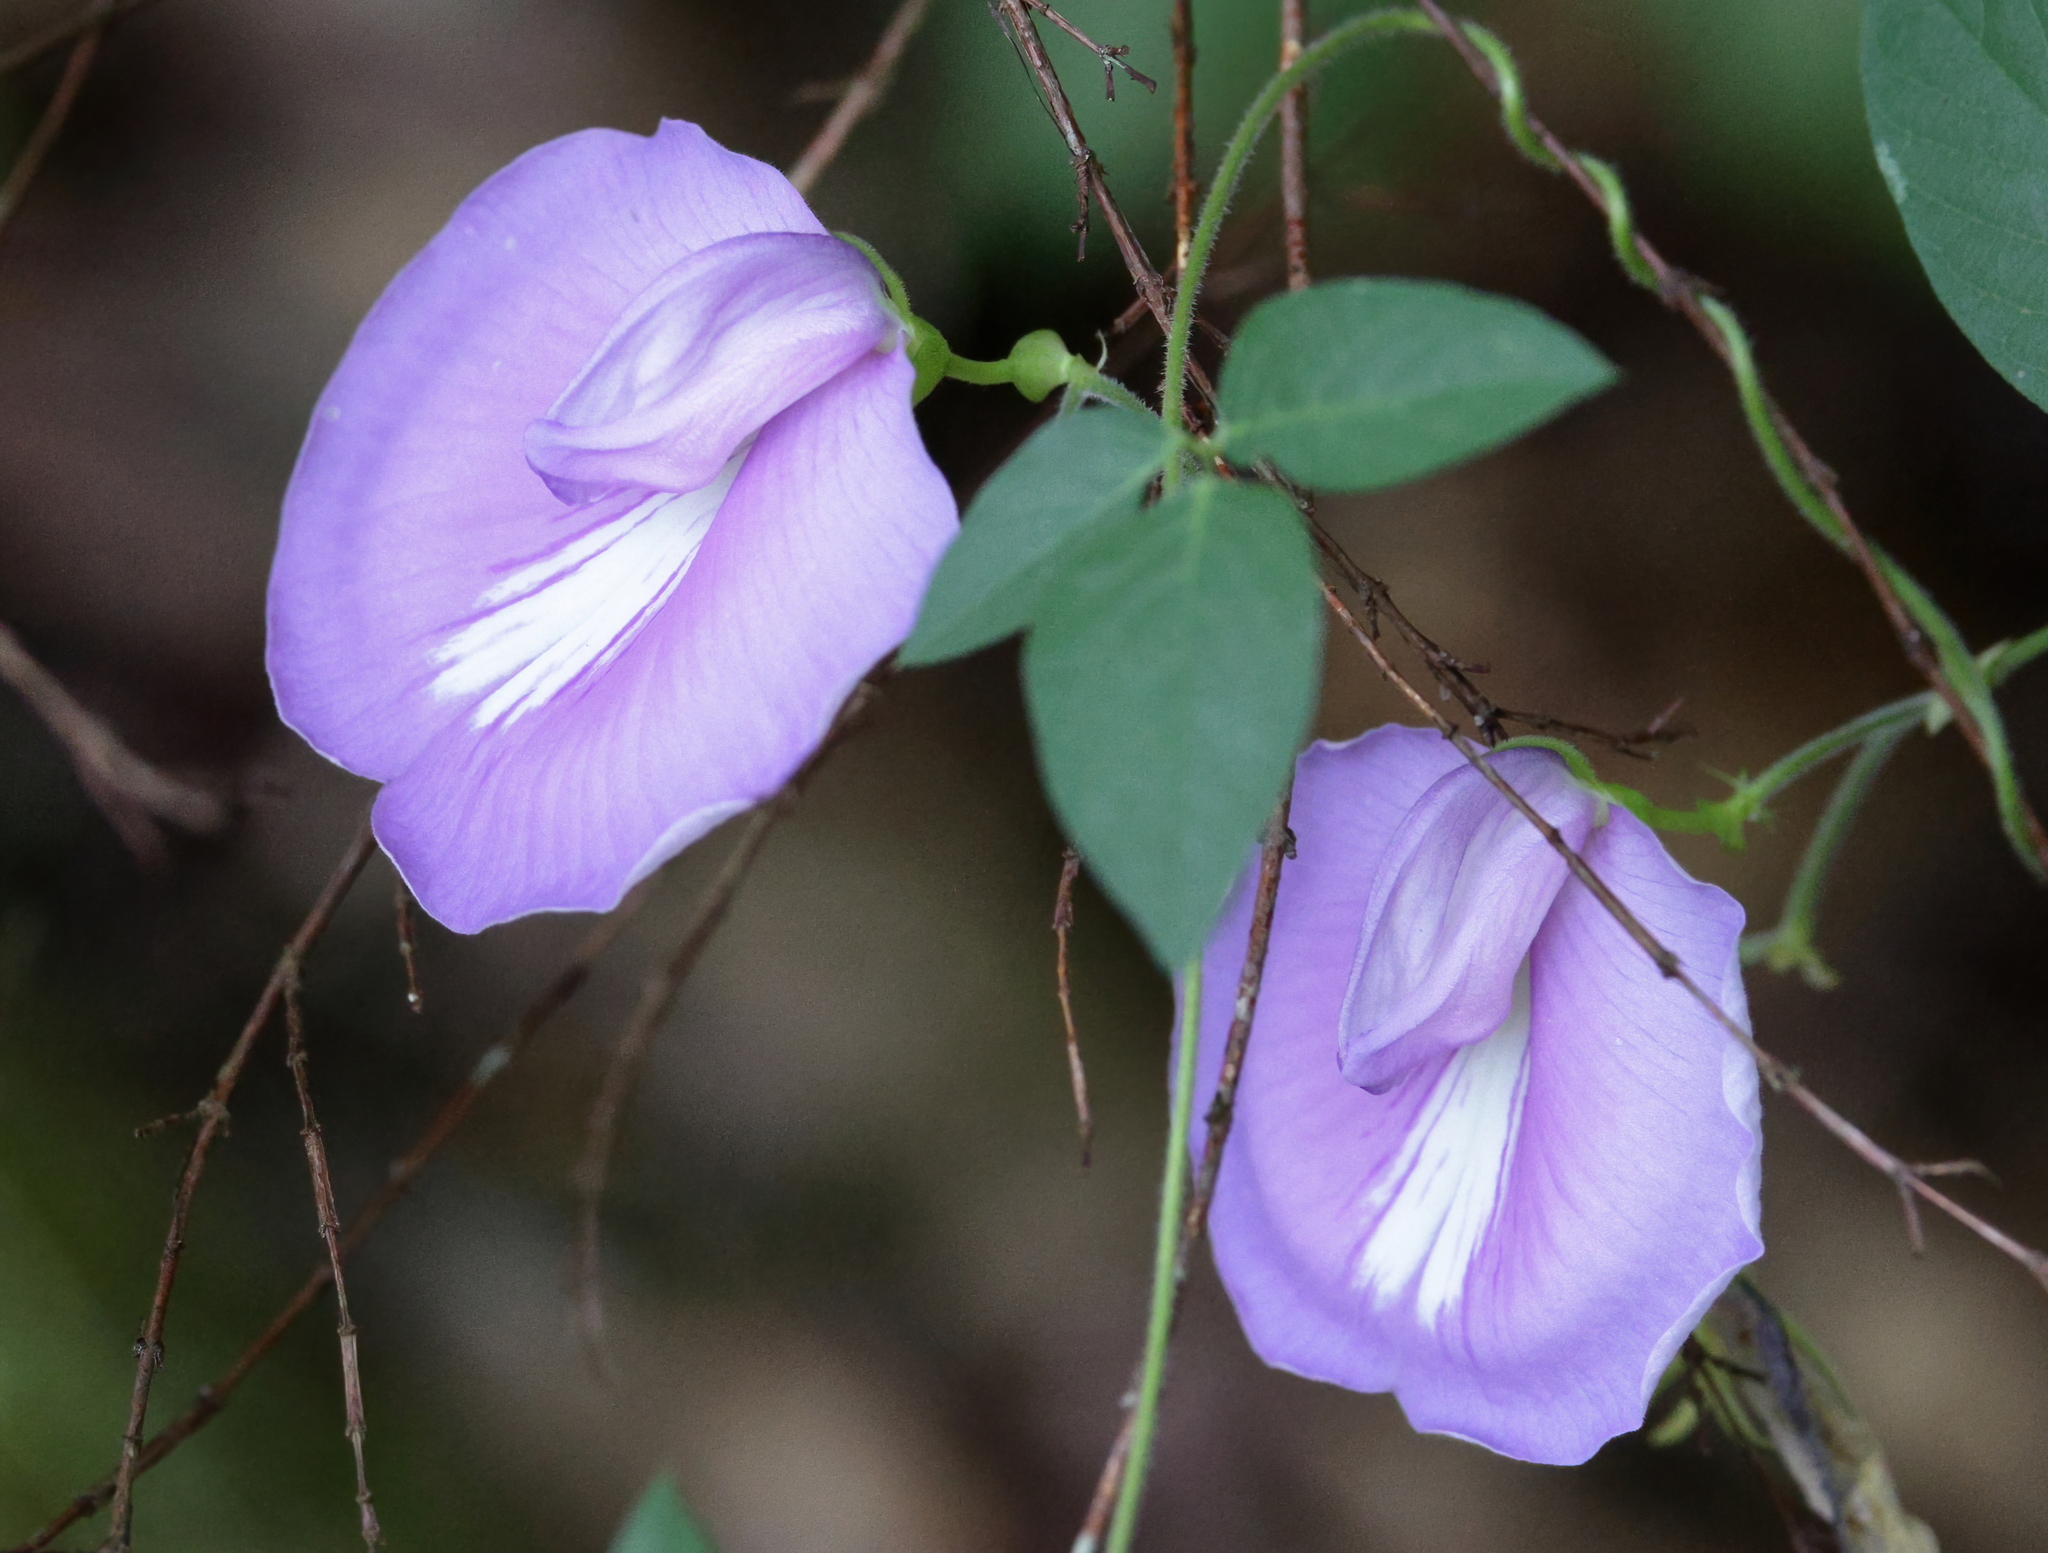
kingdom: Plantae
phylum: Tracheophyta
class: Magnoliopsida
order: Fabales
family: Fabaceae
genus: Centrosema
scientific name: Centrosema virginianum
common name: Butterfly-pea
